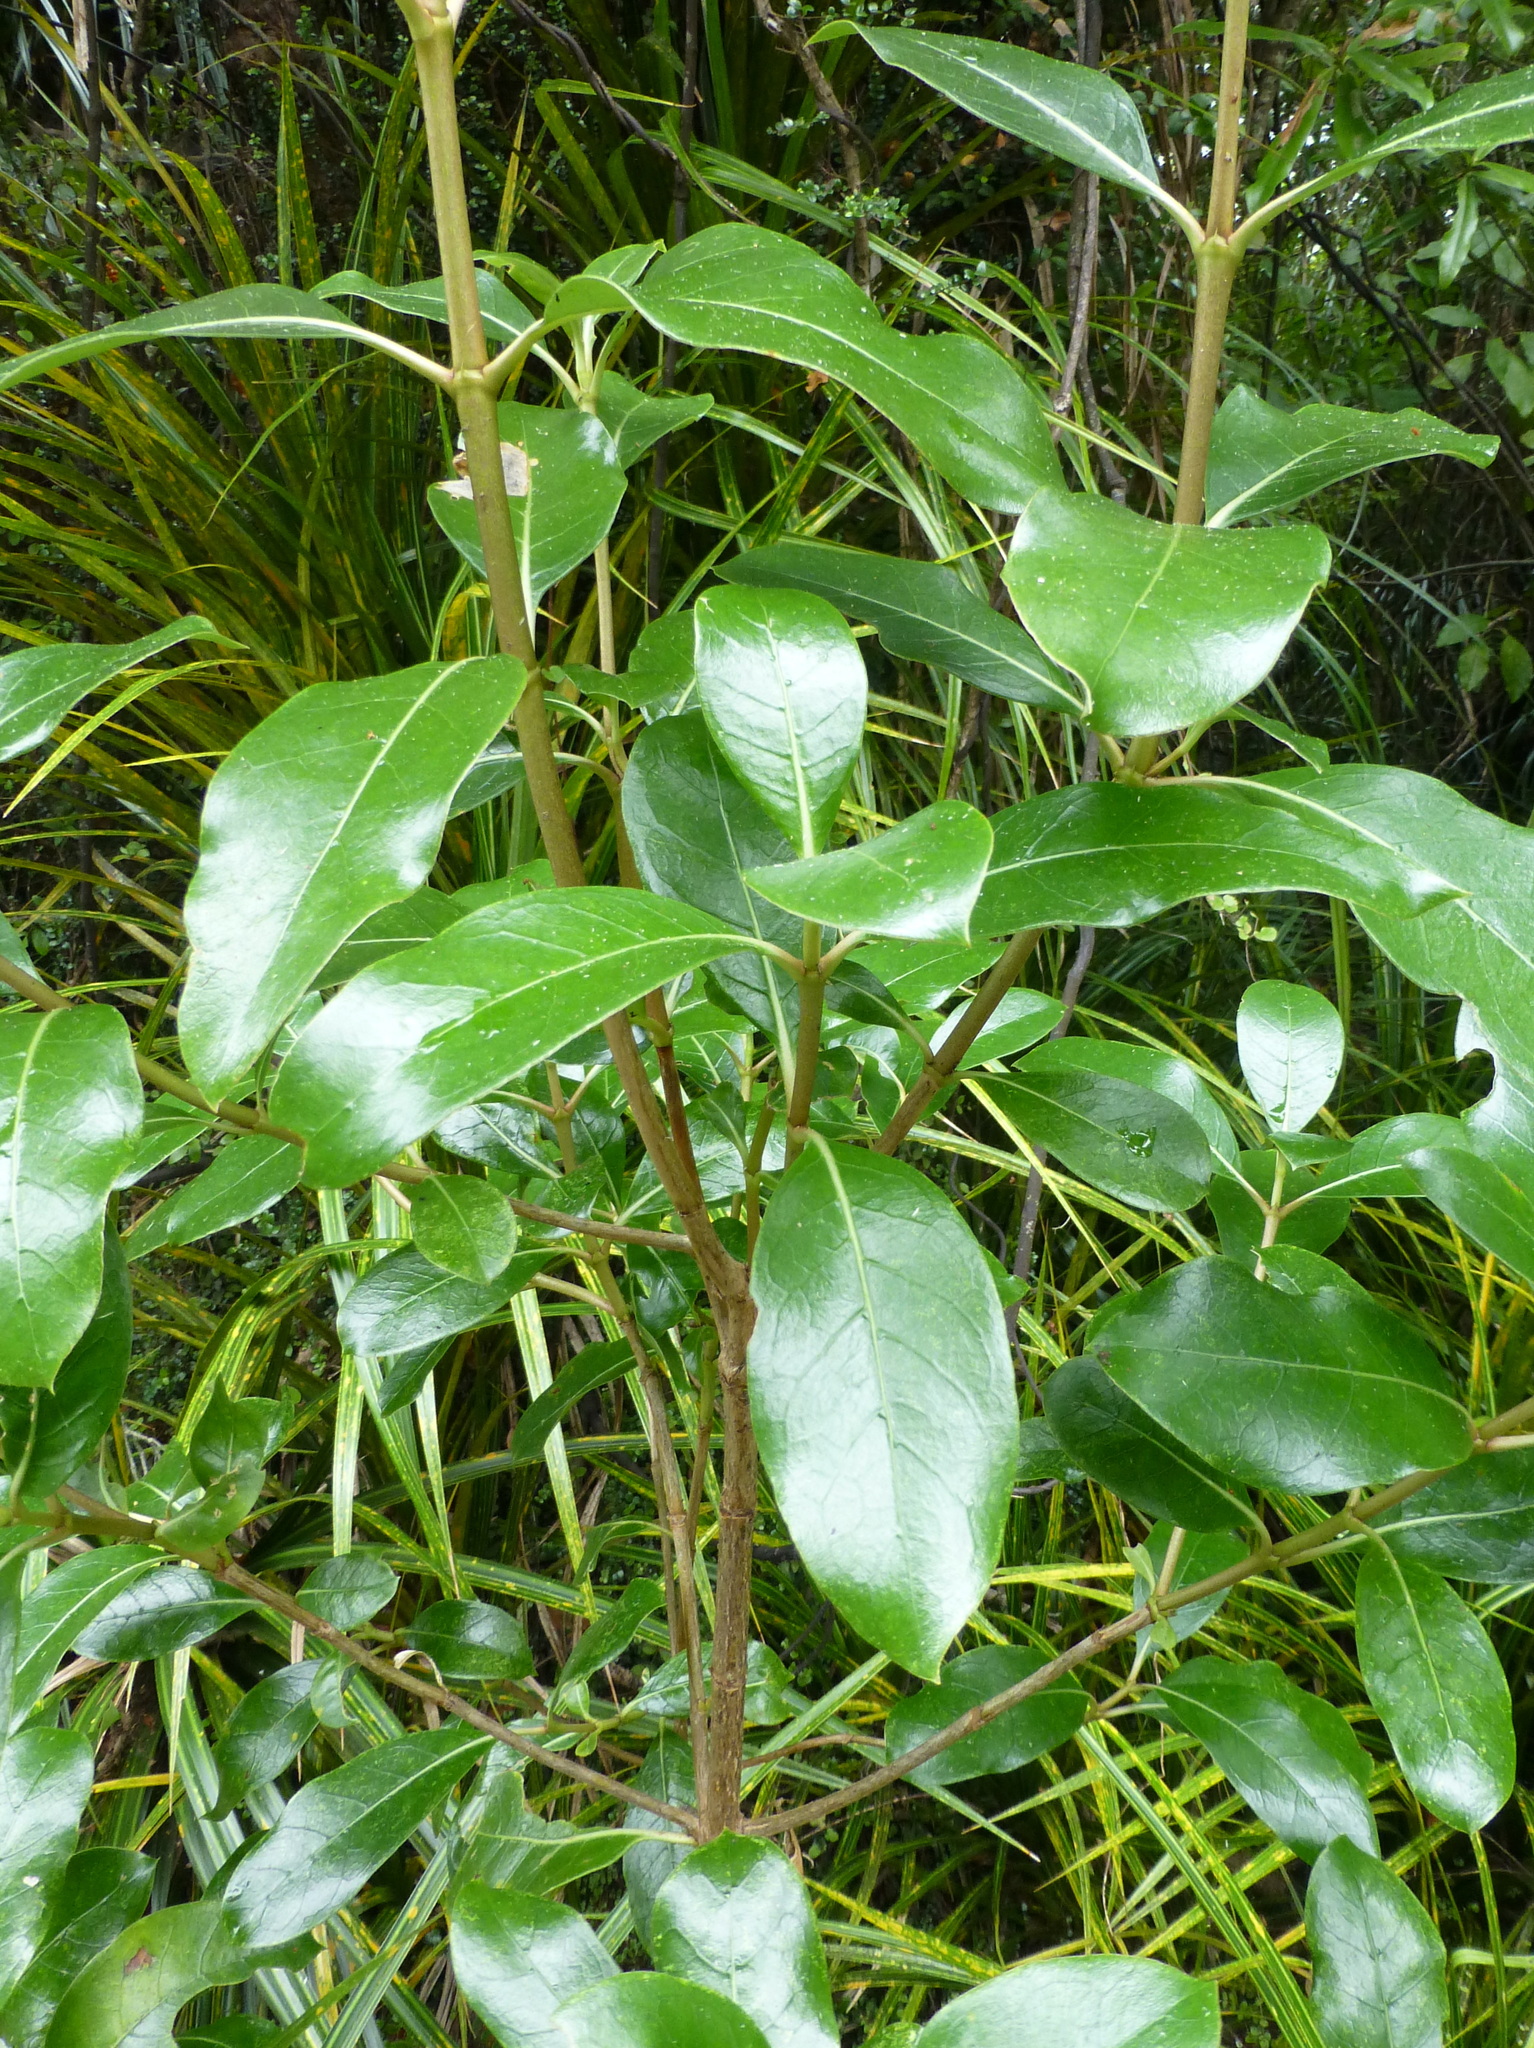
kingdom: Plantae
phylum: Tracheophyta
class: Magnoliopsida
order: Gentianales
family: Rubiaceae
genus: Coprosma
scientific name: Coprosma lucida
